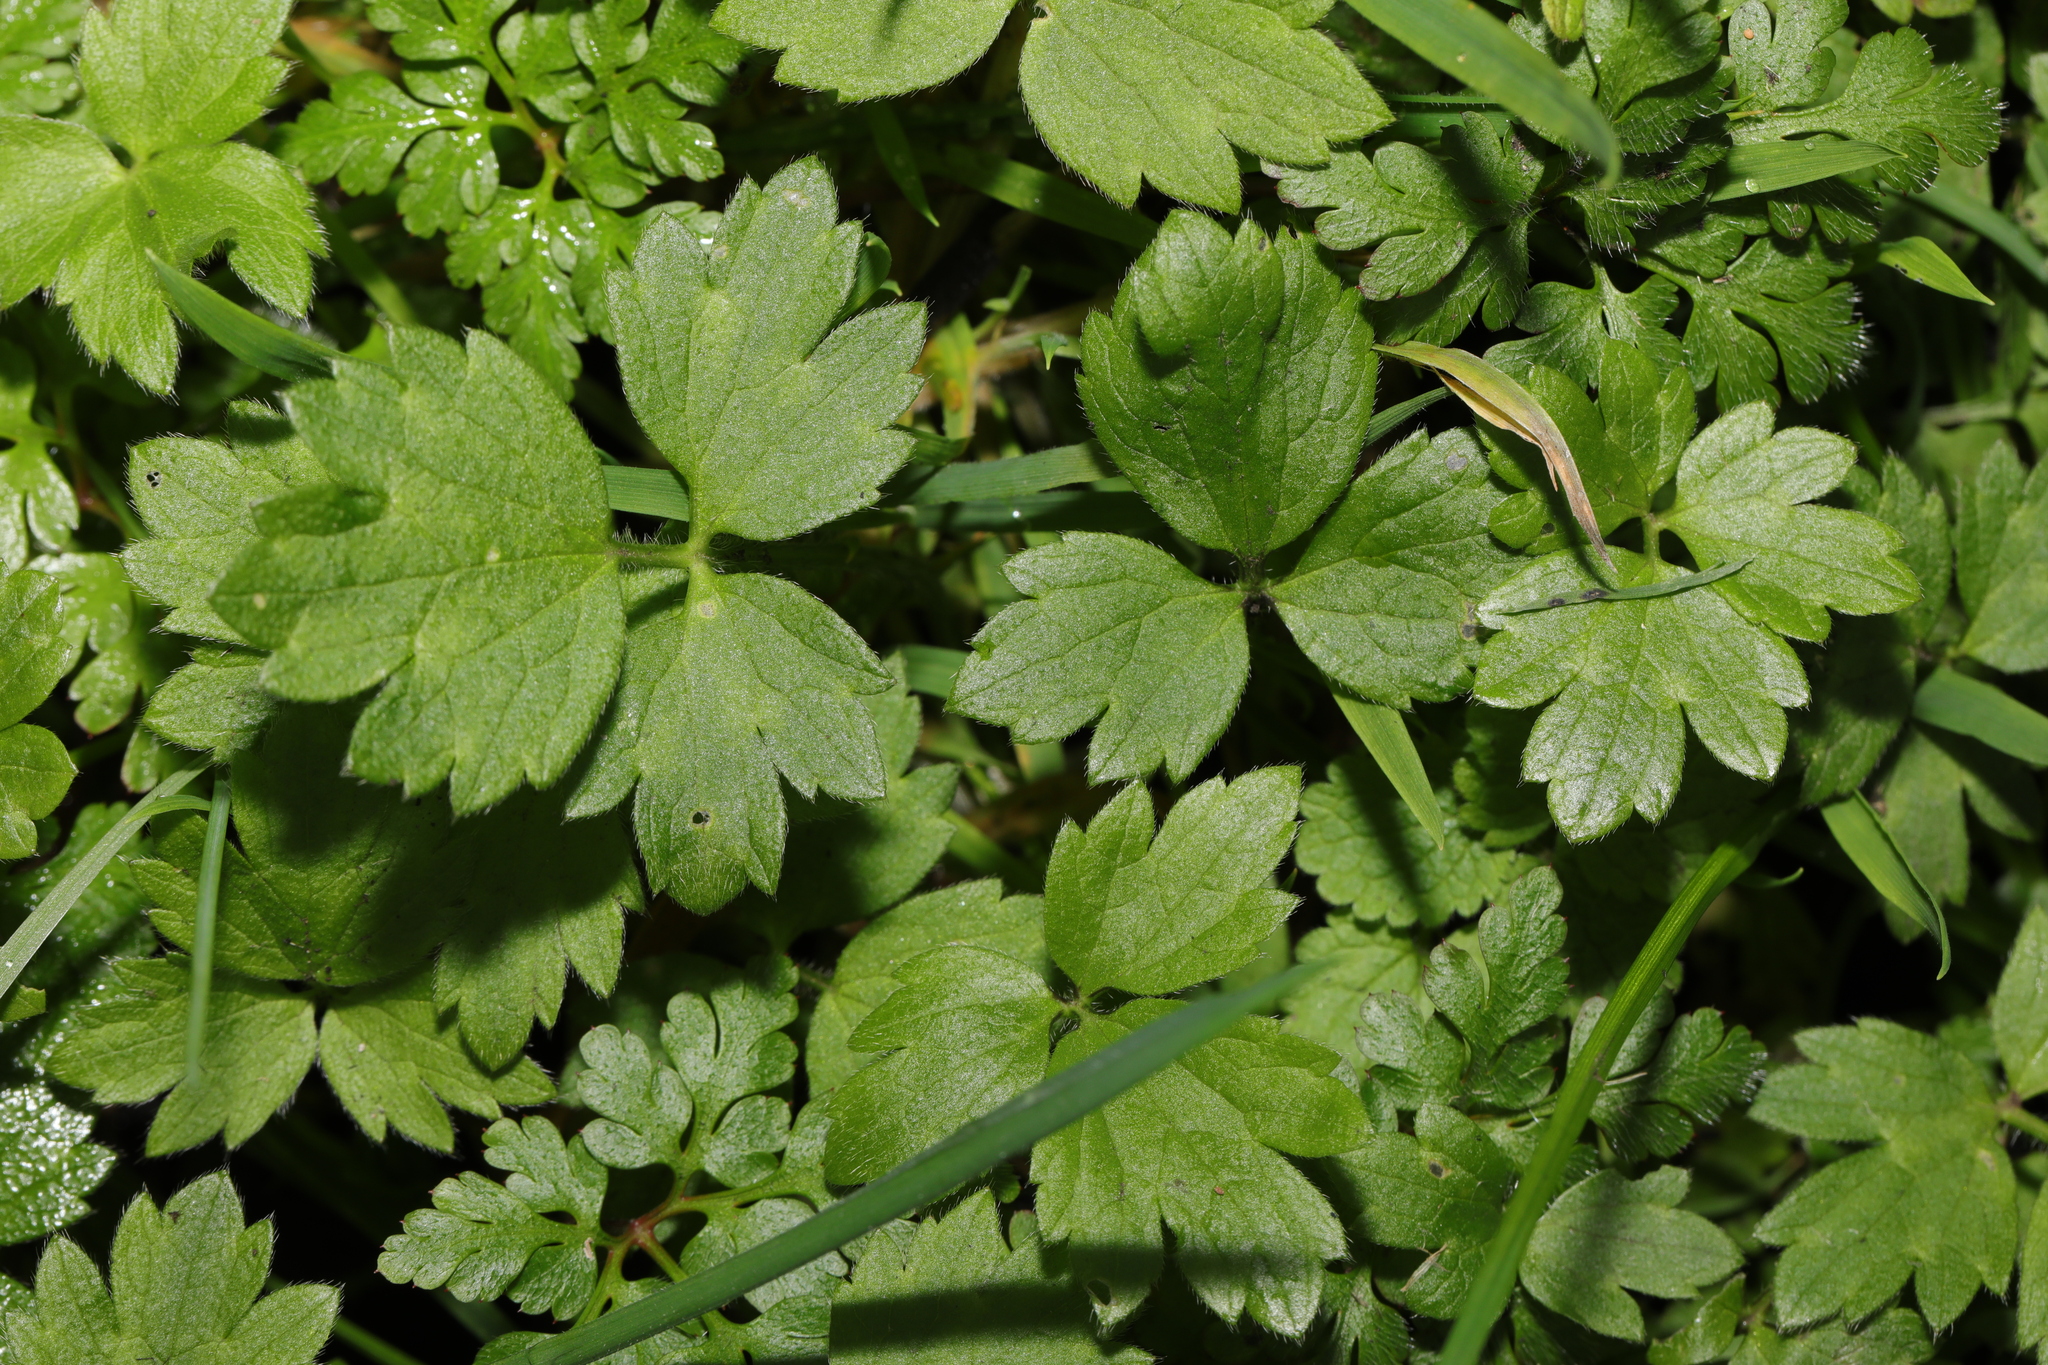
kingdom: Plantae
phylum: Tracheophyta
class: Magnoliopsida
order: Ranunculales
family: Ranunculaceae
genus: Ranunculus
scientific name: Ranunculus repens
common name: Creeping buttercup
